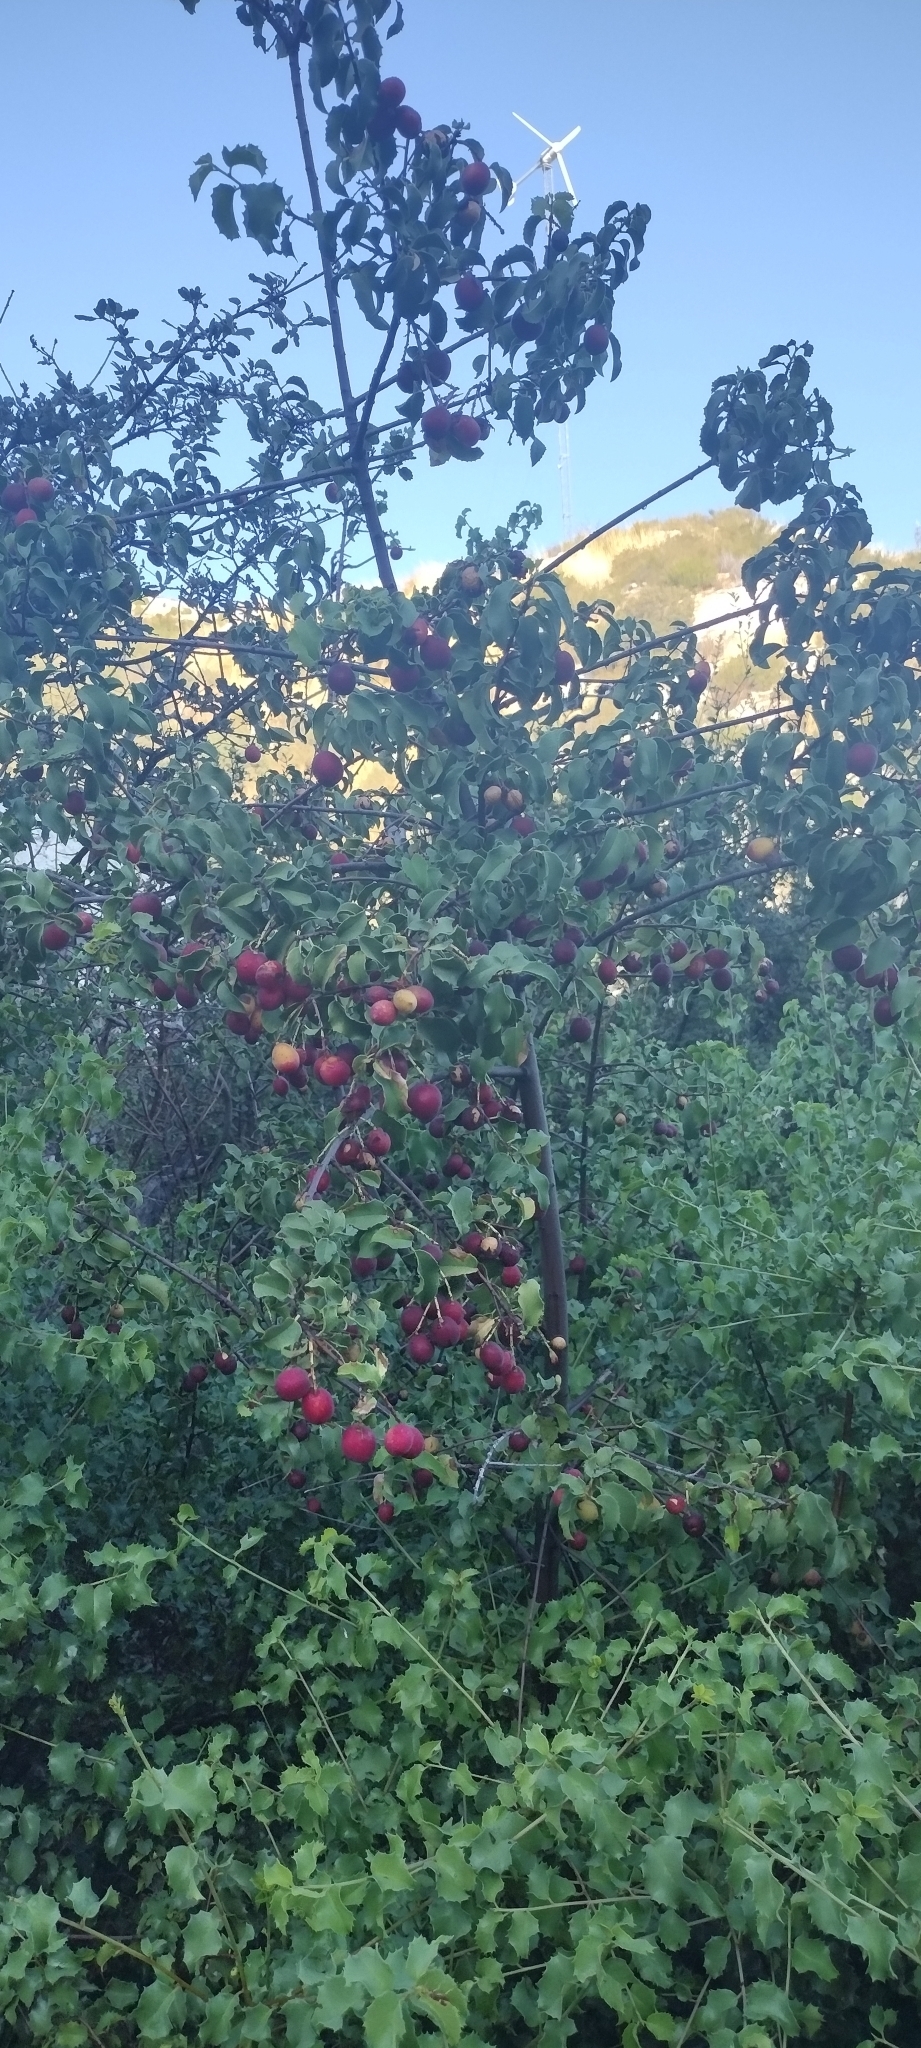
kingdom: Plantae
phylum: Tracheophyta
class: Magnoliopsida
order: Rosales
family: Rosaceae
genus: Prunus
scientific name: Prunus ilicifolia
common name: Hollyleaf cherry
